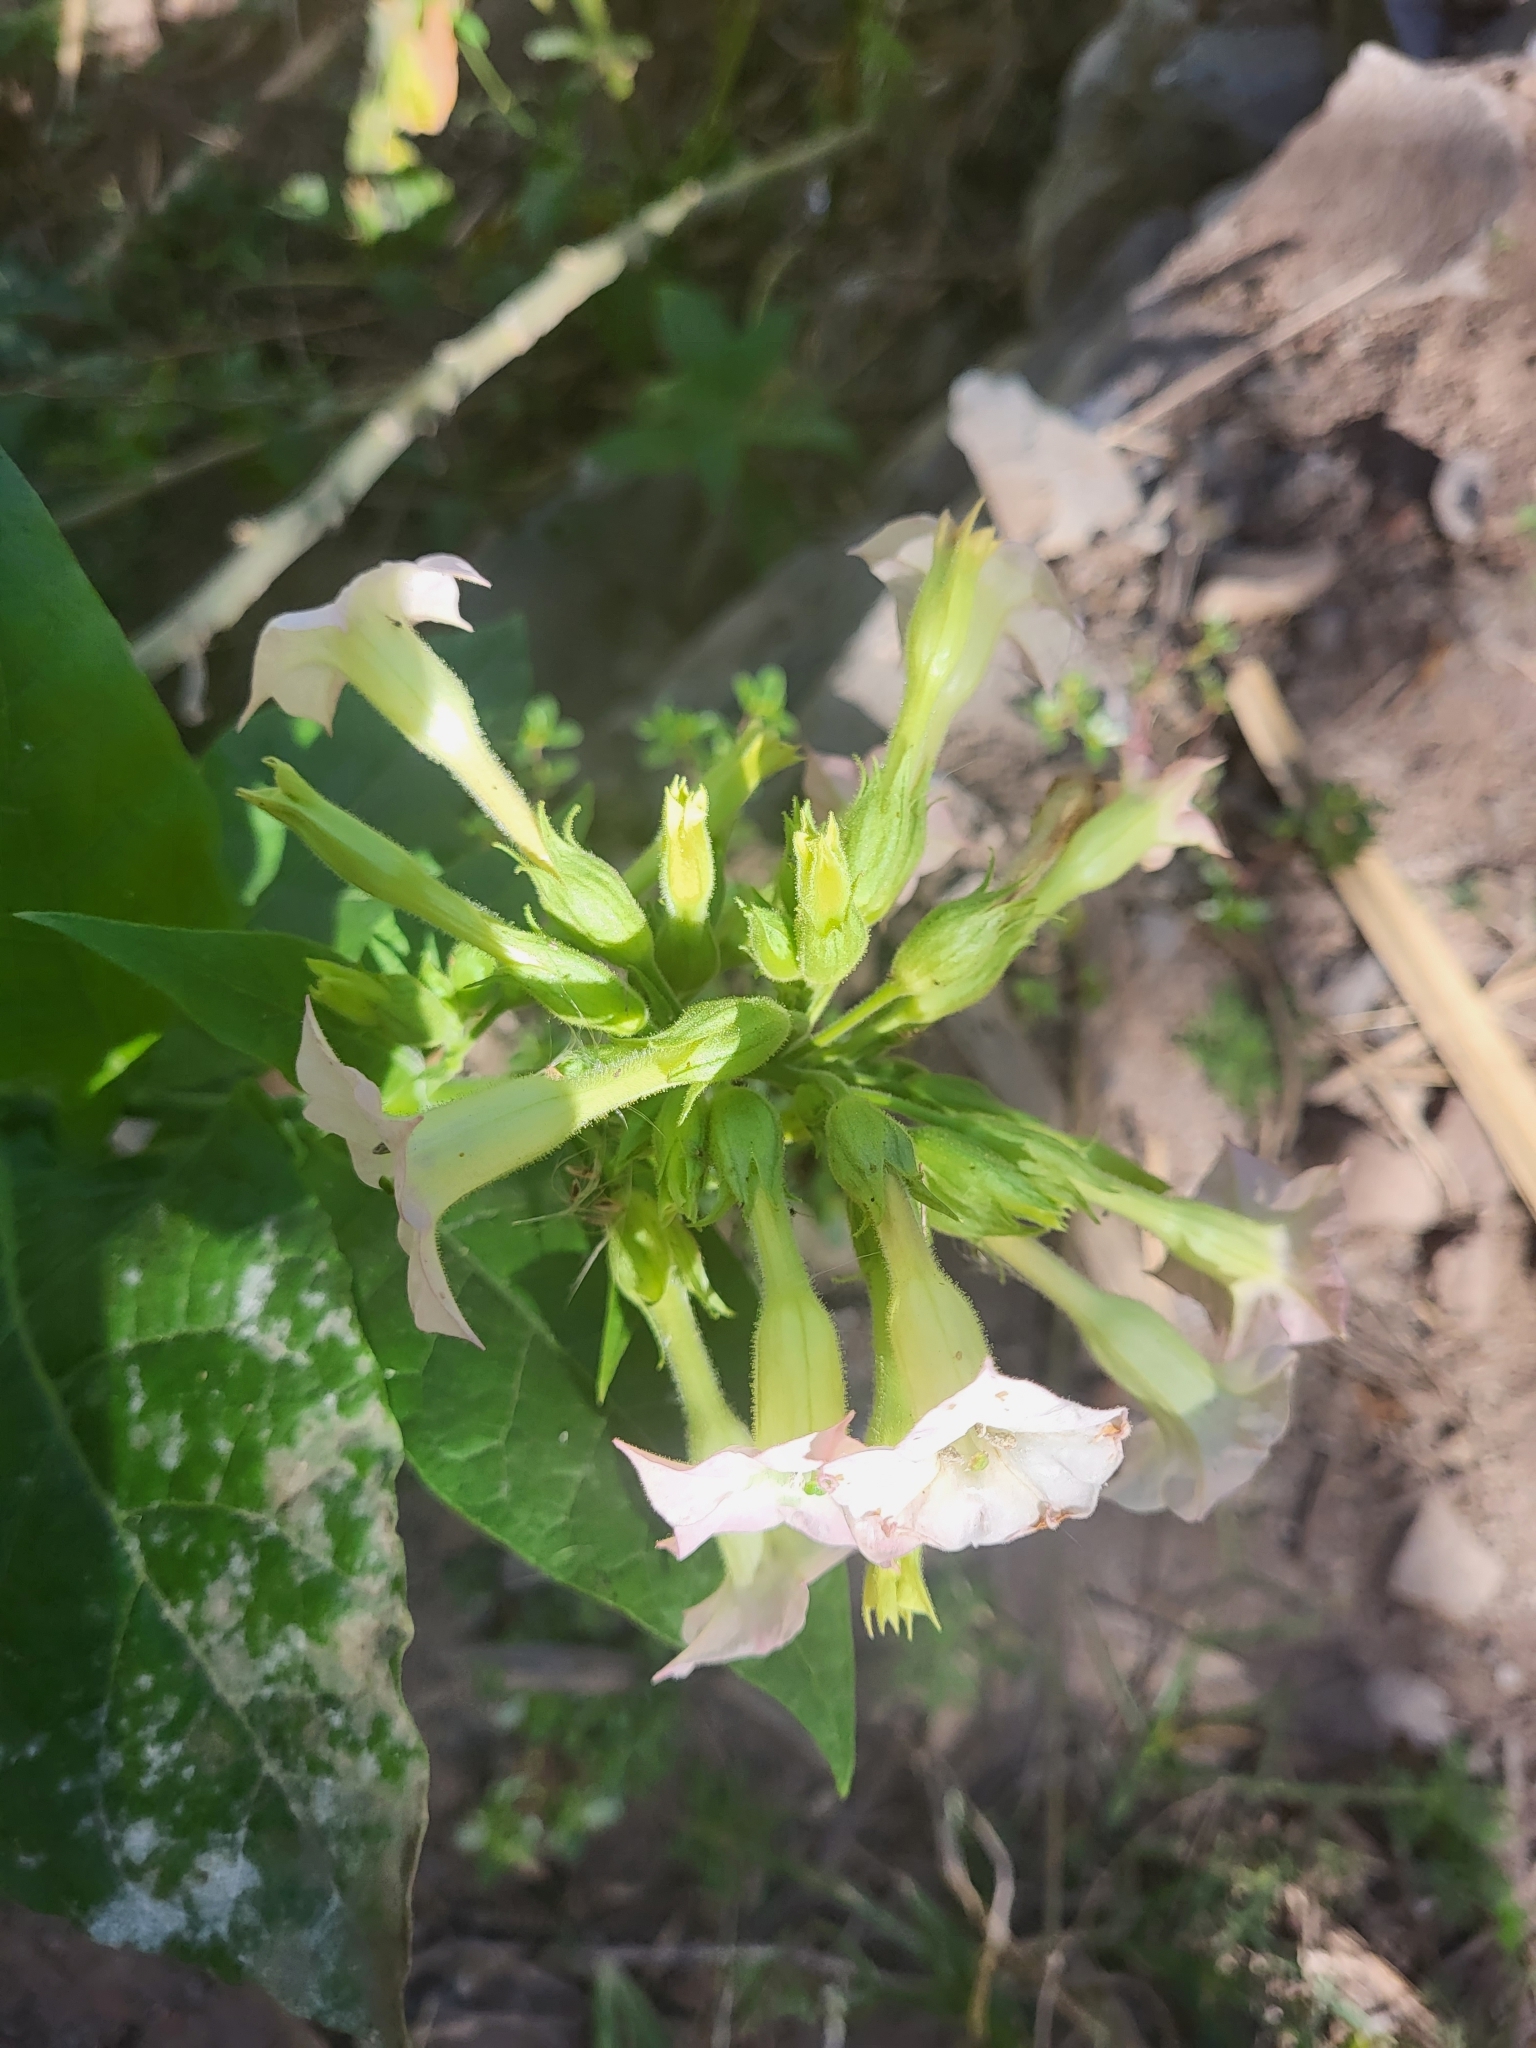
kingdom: Plantae
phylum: Tracheophyta
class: Magnoliopsida
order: Solanales
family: Solanaceae
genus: Nicotiana
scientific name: Nicotiana tabacum
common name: Tobacco
